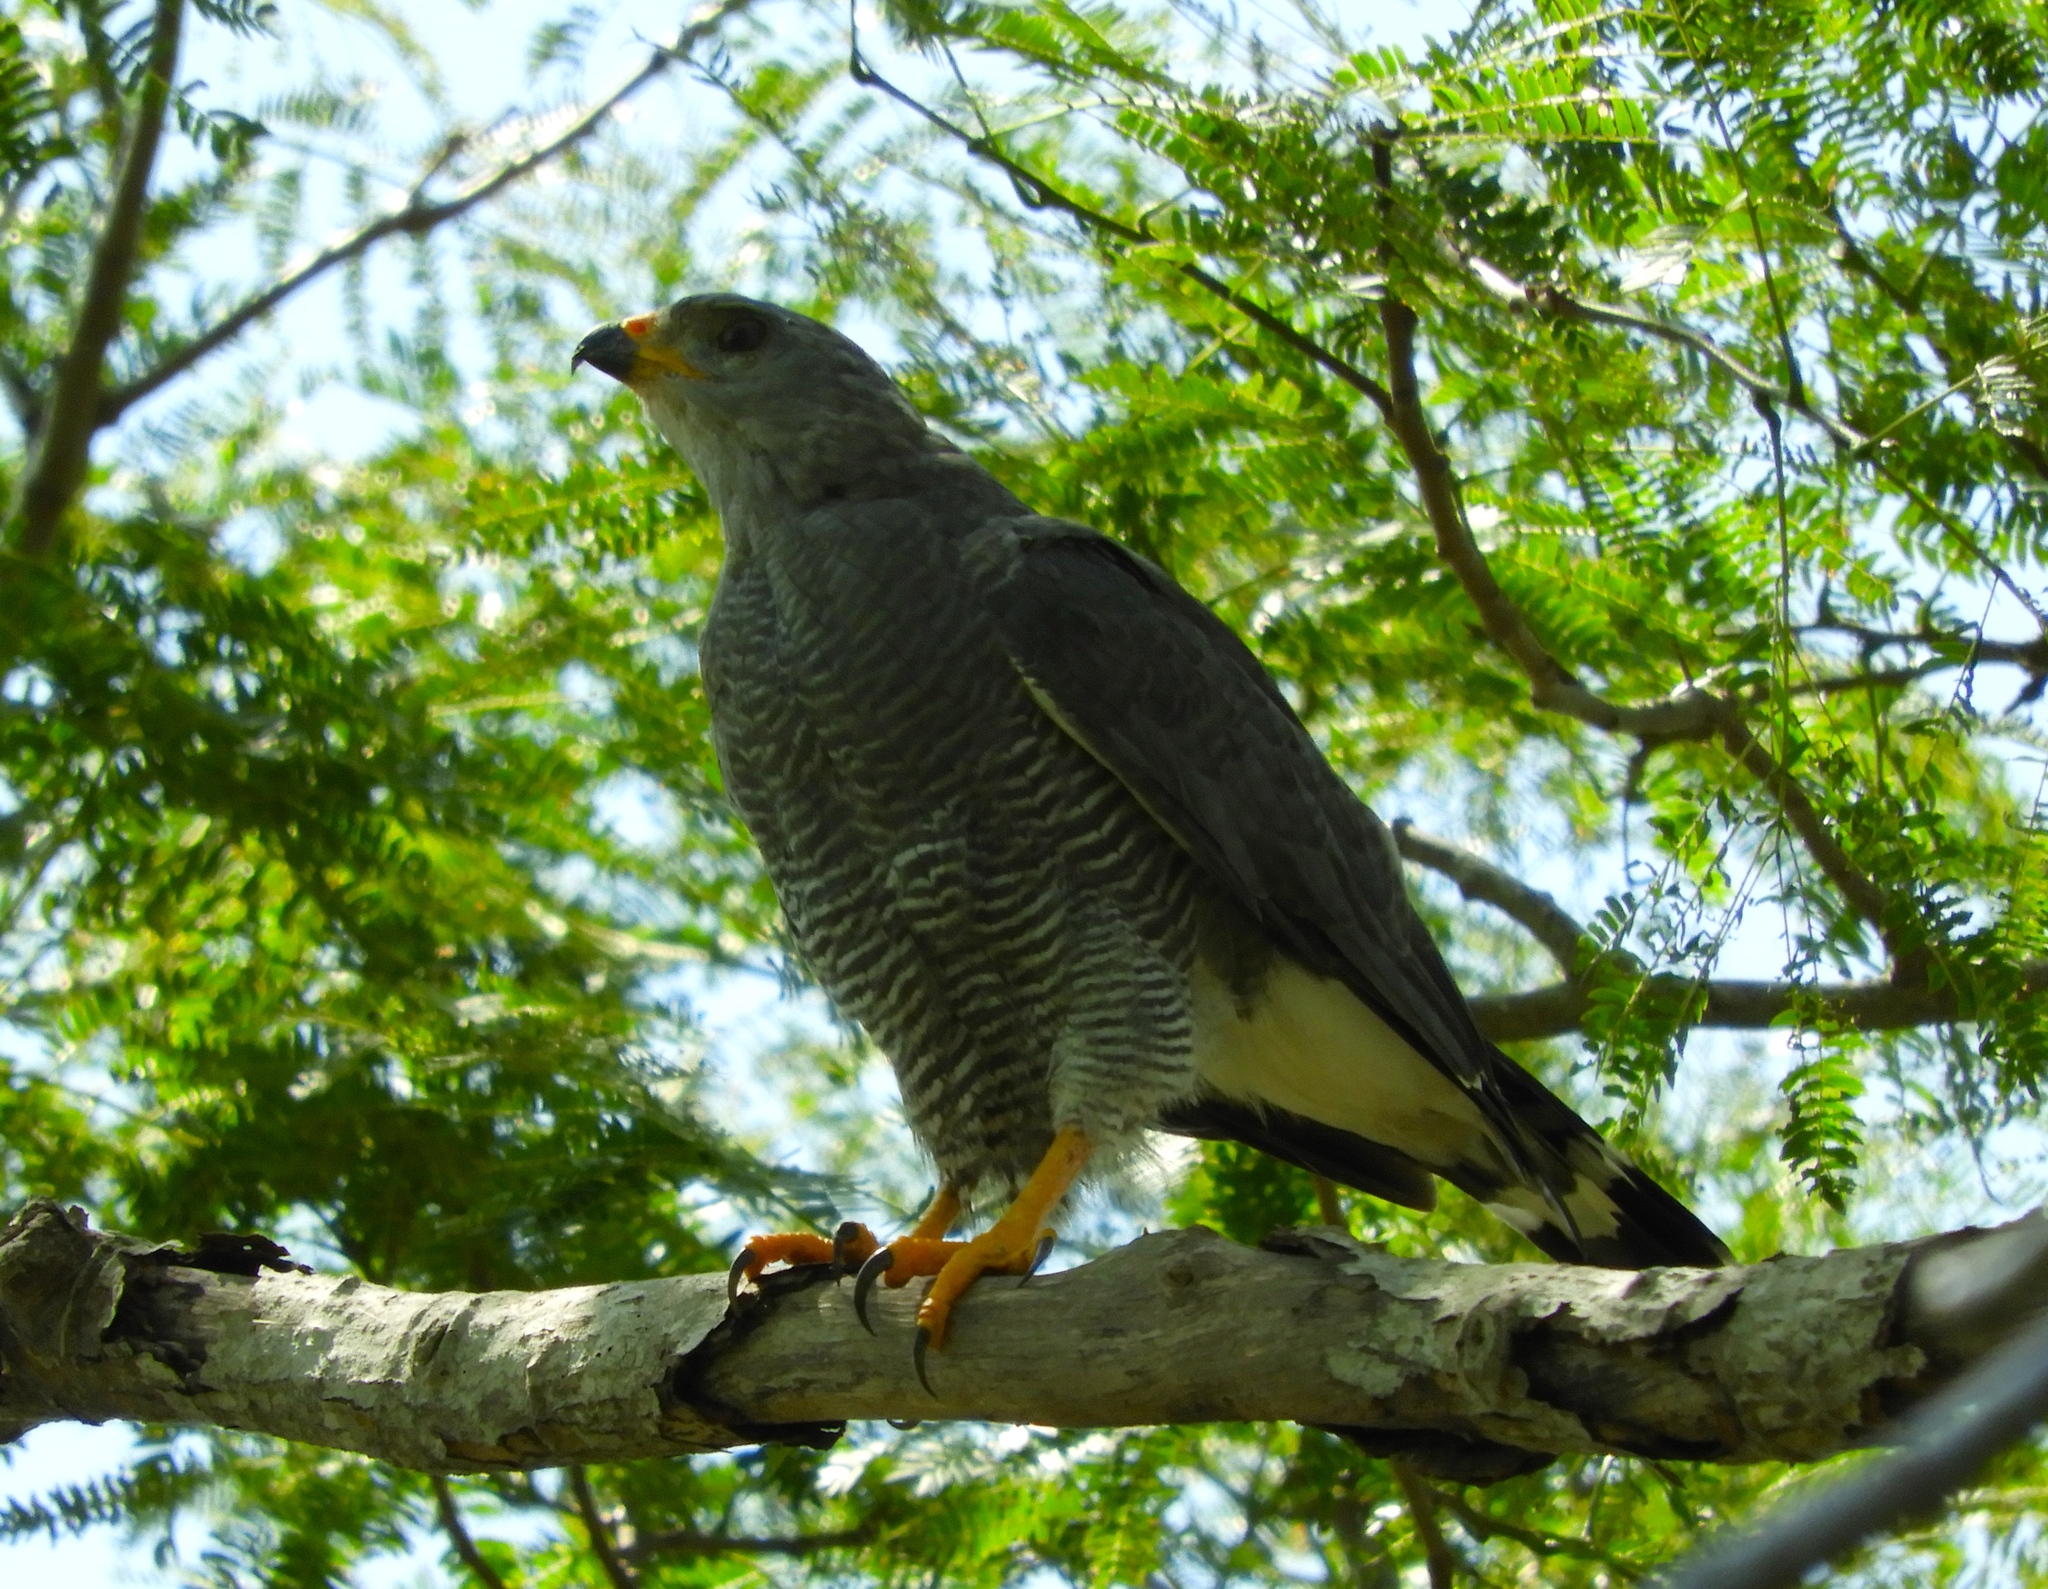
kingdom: Animalia
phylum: Chordata
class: Aves
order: Accipitriformes
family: Accipitridae
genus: Buteo
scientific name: Buteo nitidus
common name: Grey-lined hawk
